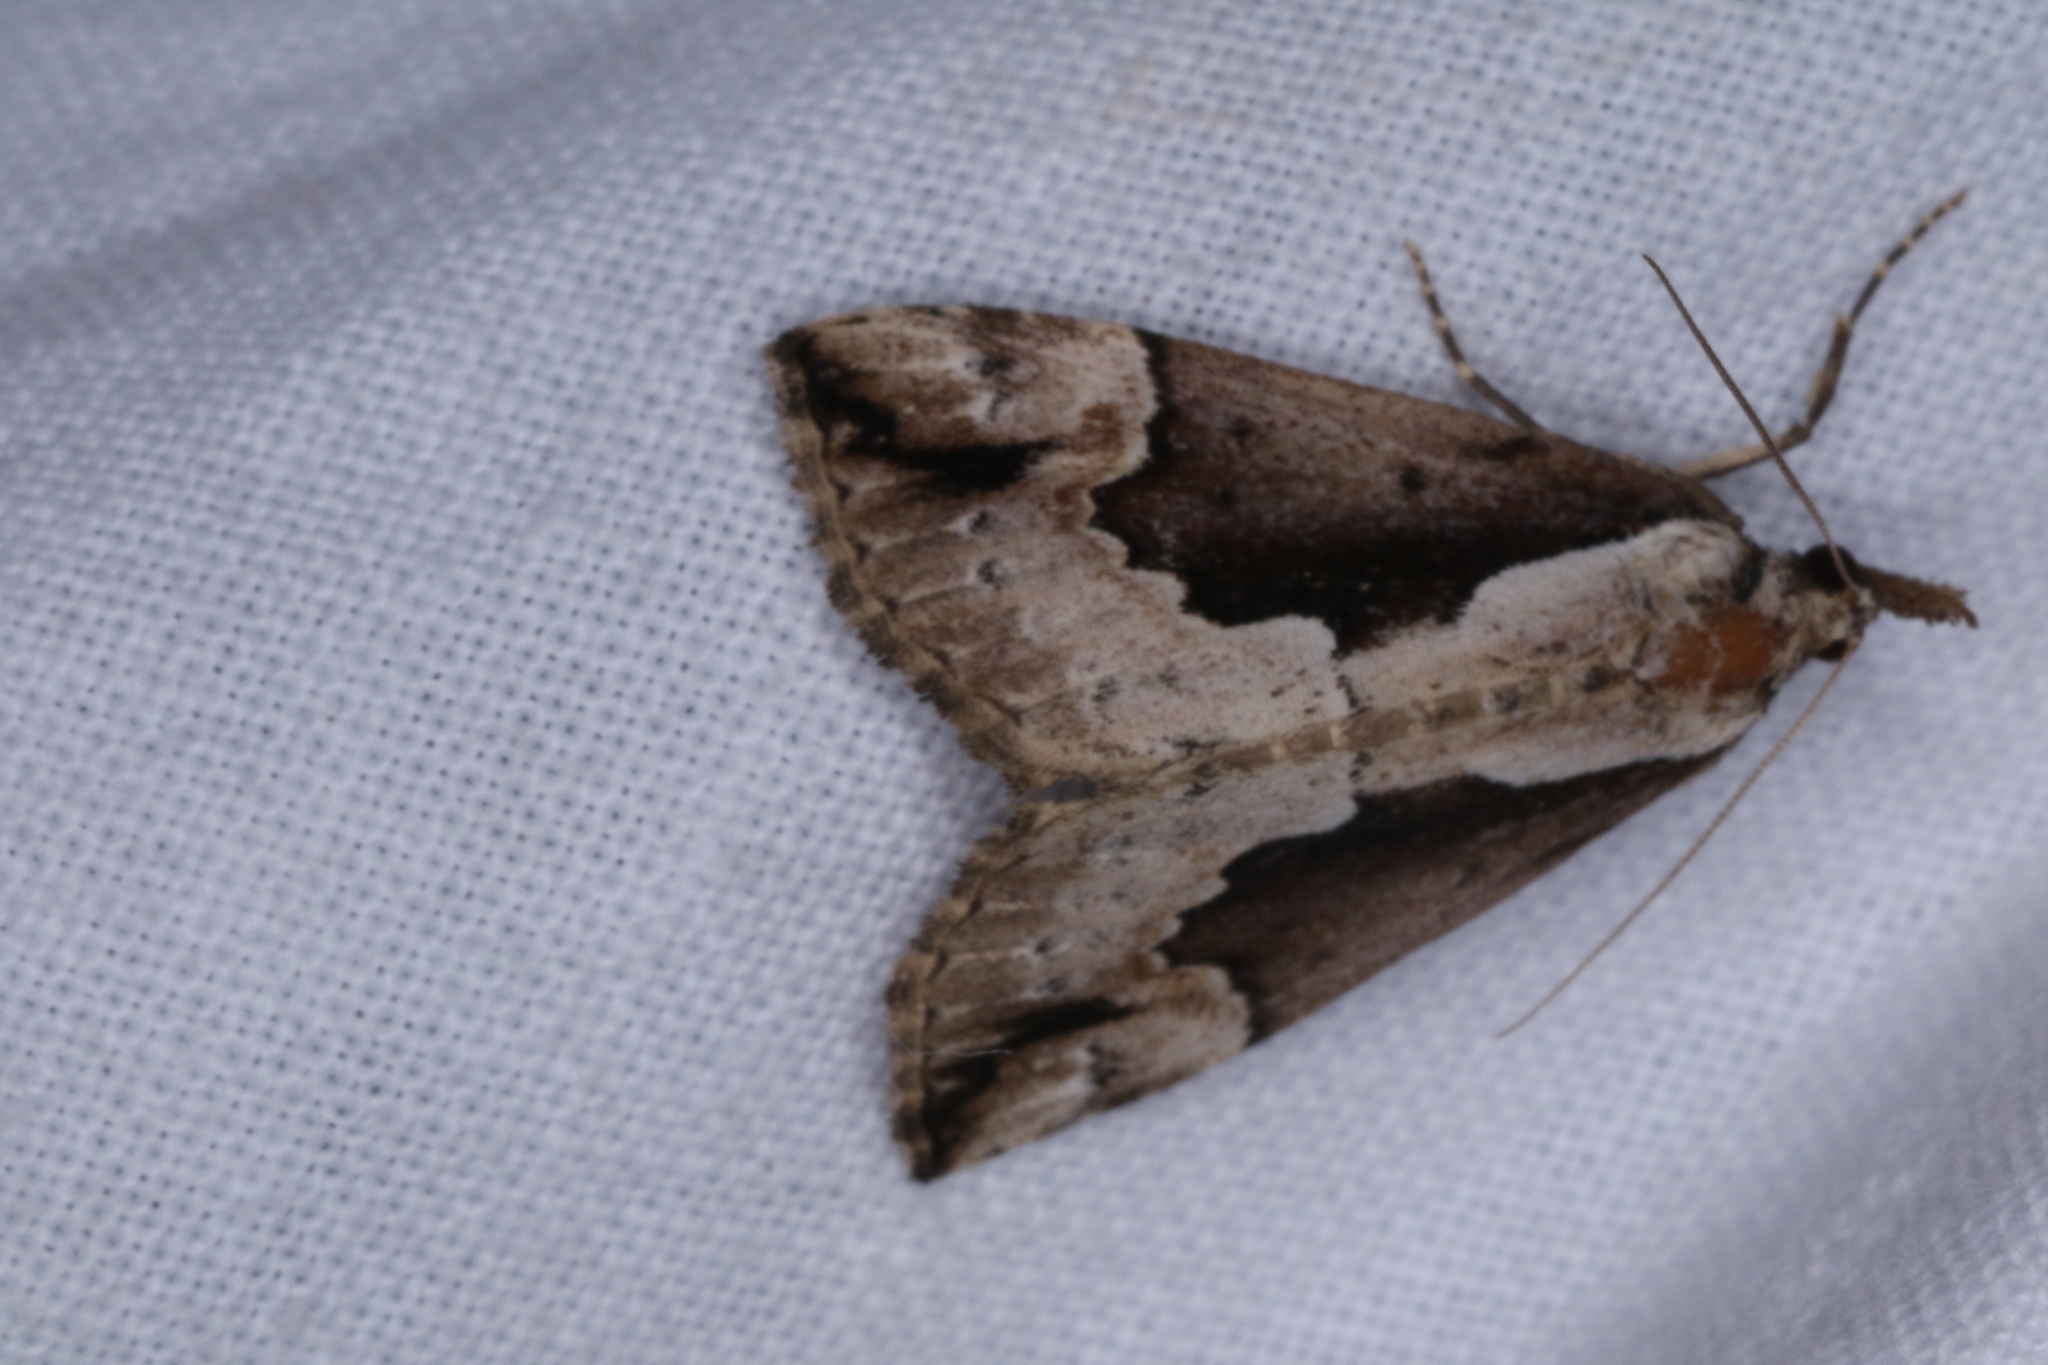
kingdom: Animalia
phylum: Arthropoda
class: Insecta
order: Lepidoptera
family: Erebidae
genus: Hypena
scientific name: Hypena baltimoralis
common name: Baltimore snout
